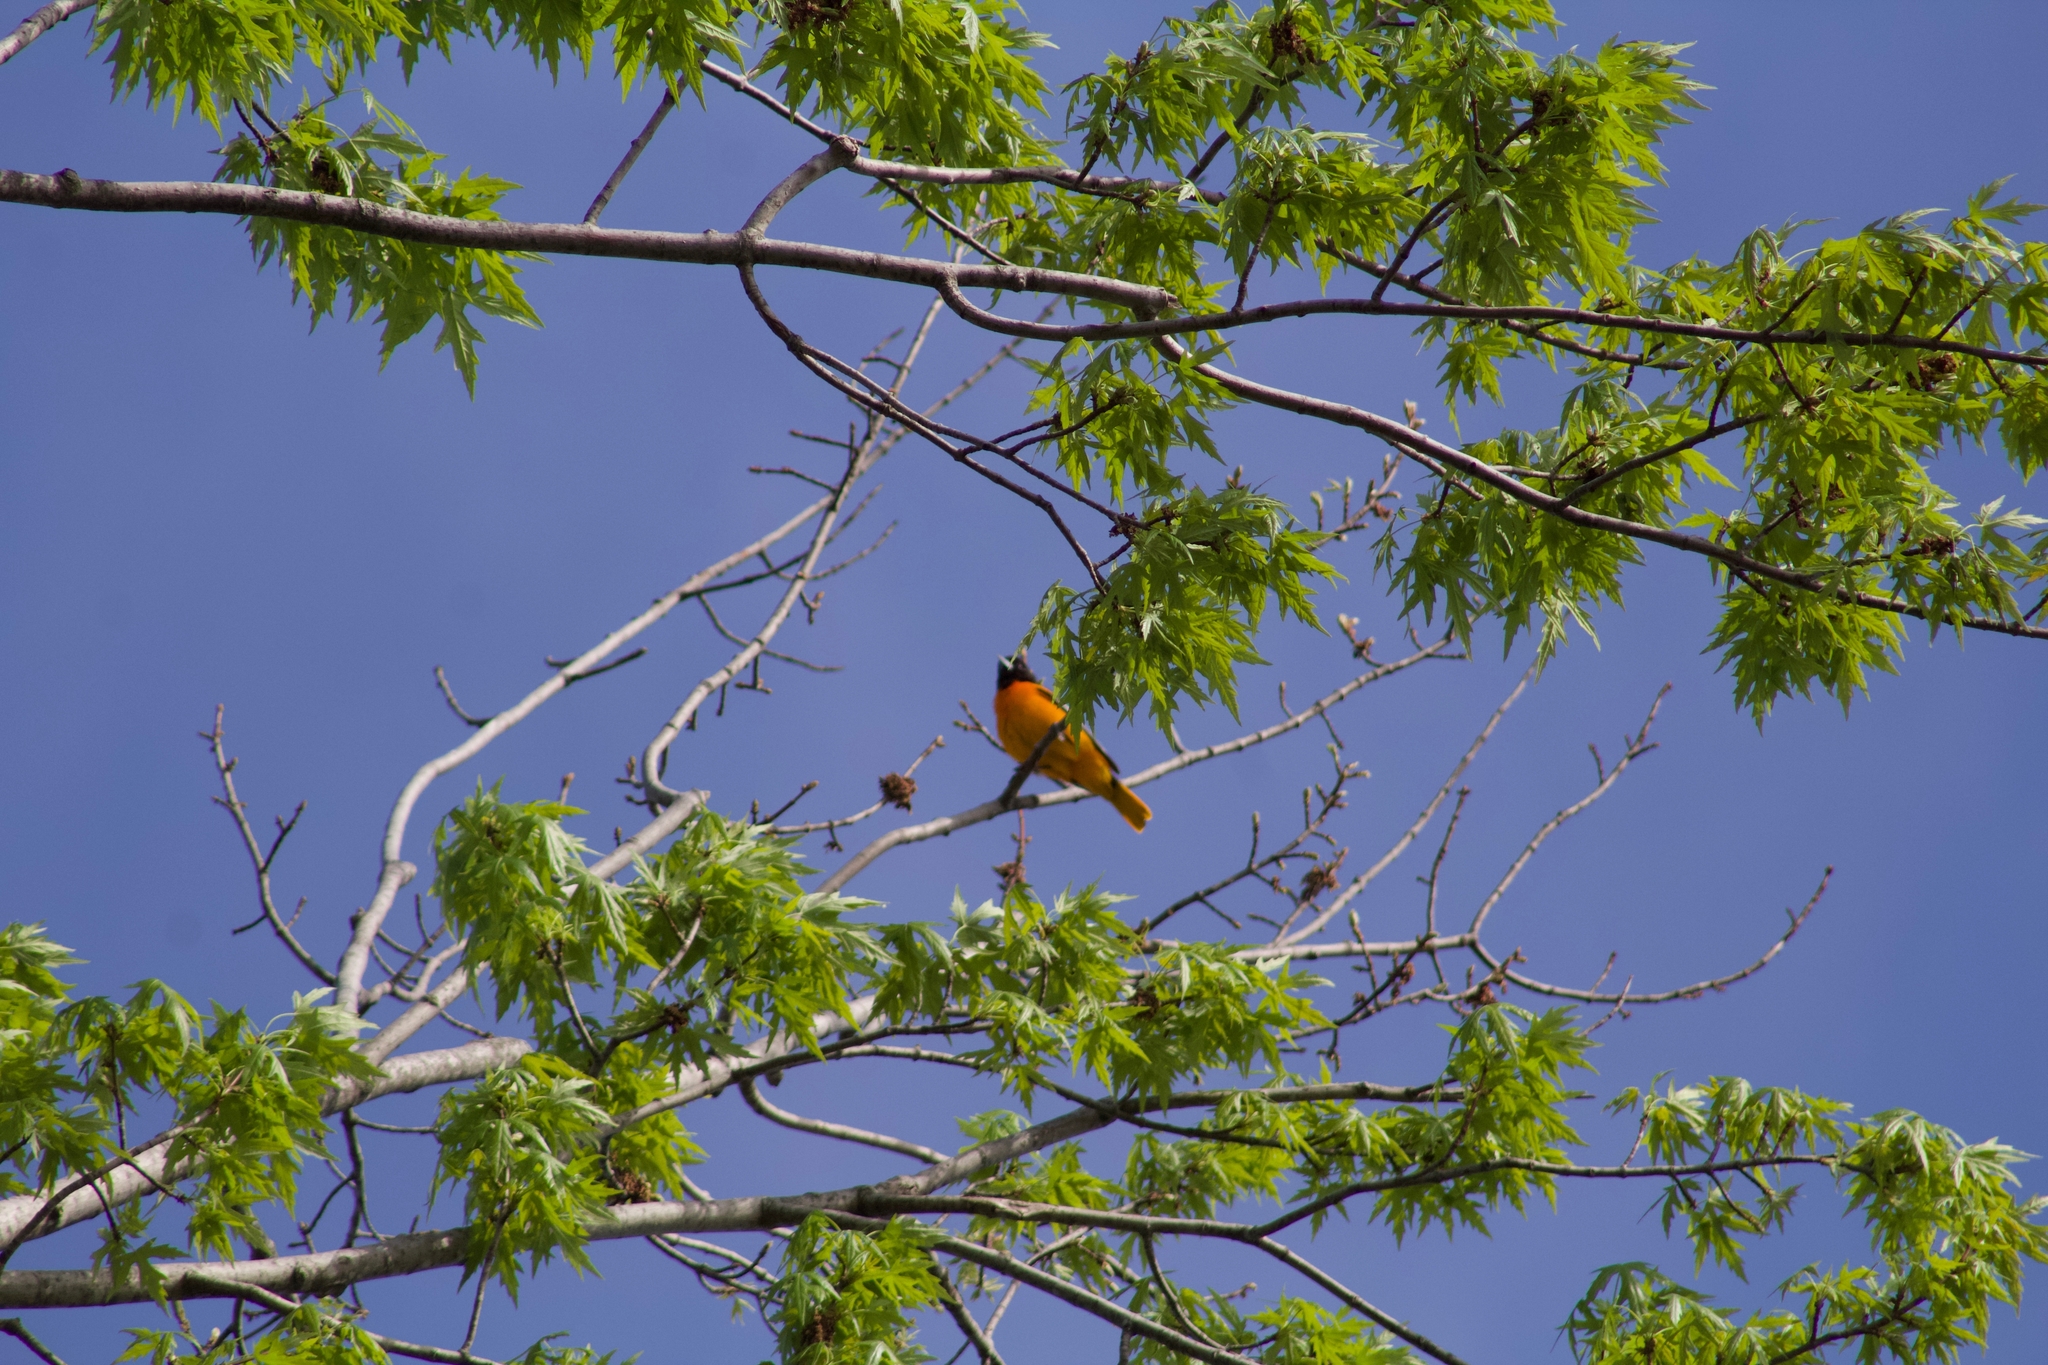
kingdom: Animalia
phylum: Chordata
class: Aves
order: Passeriformes
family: Icteridae
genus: Icterus
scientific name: Icterus galbula
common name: Baltimore oriole
